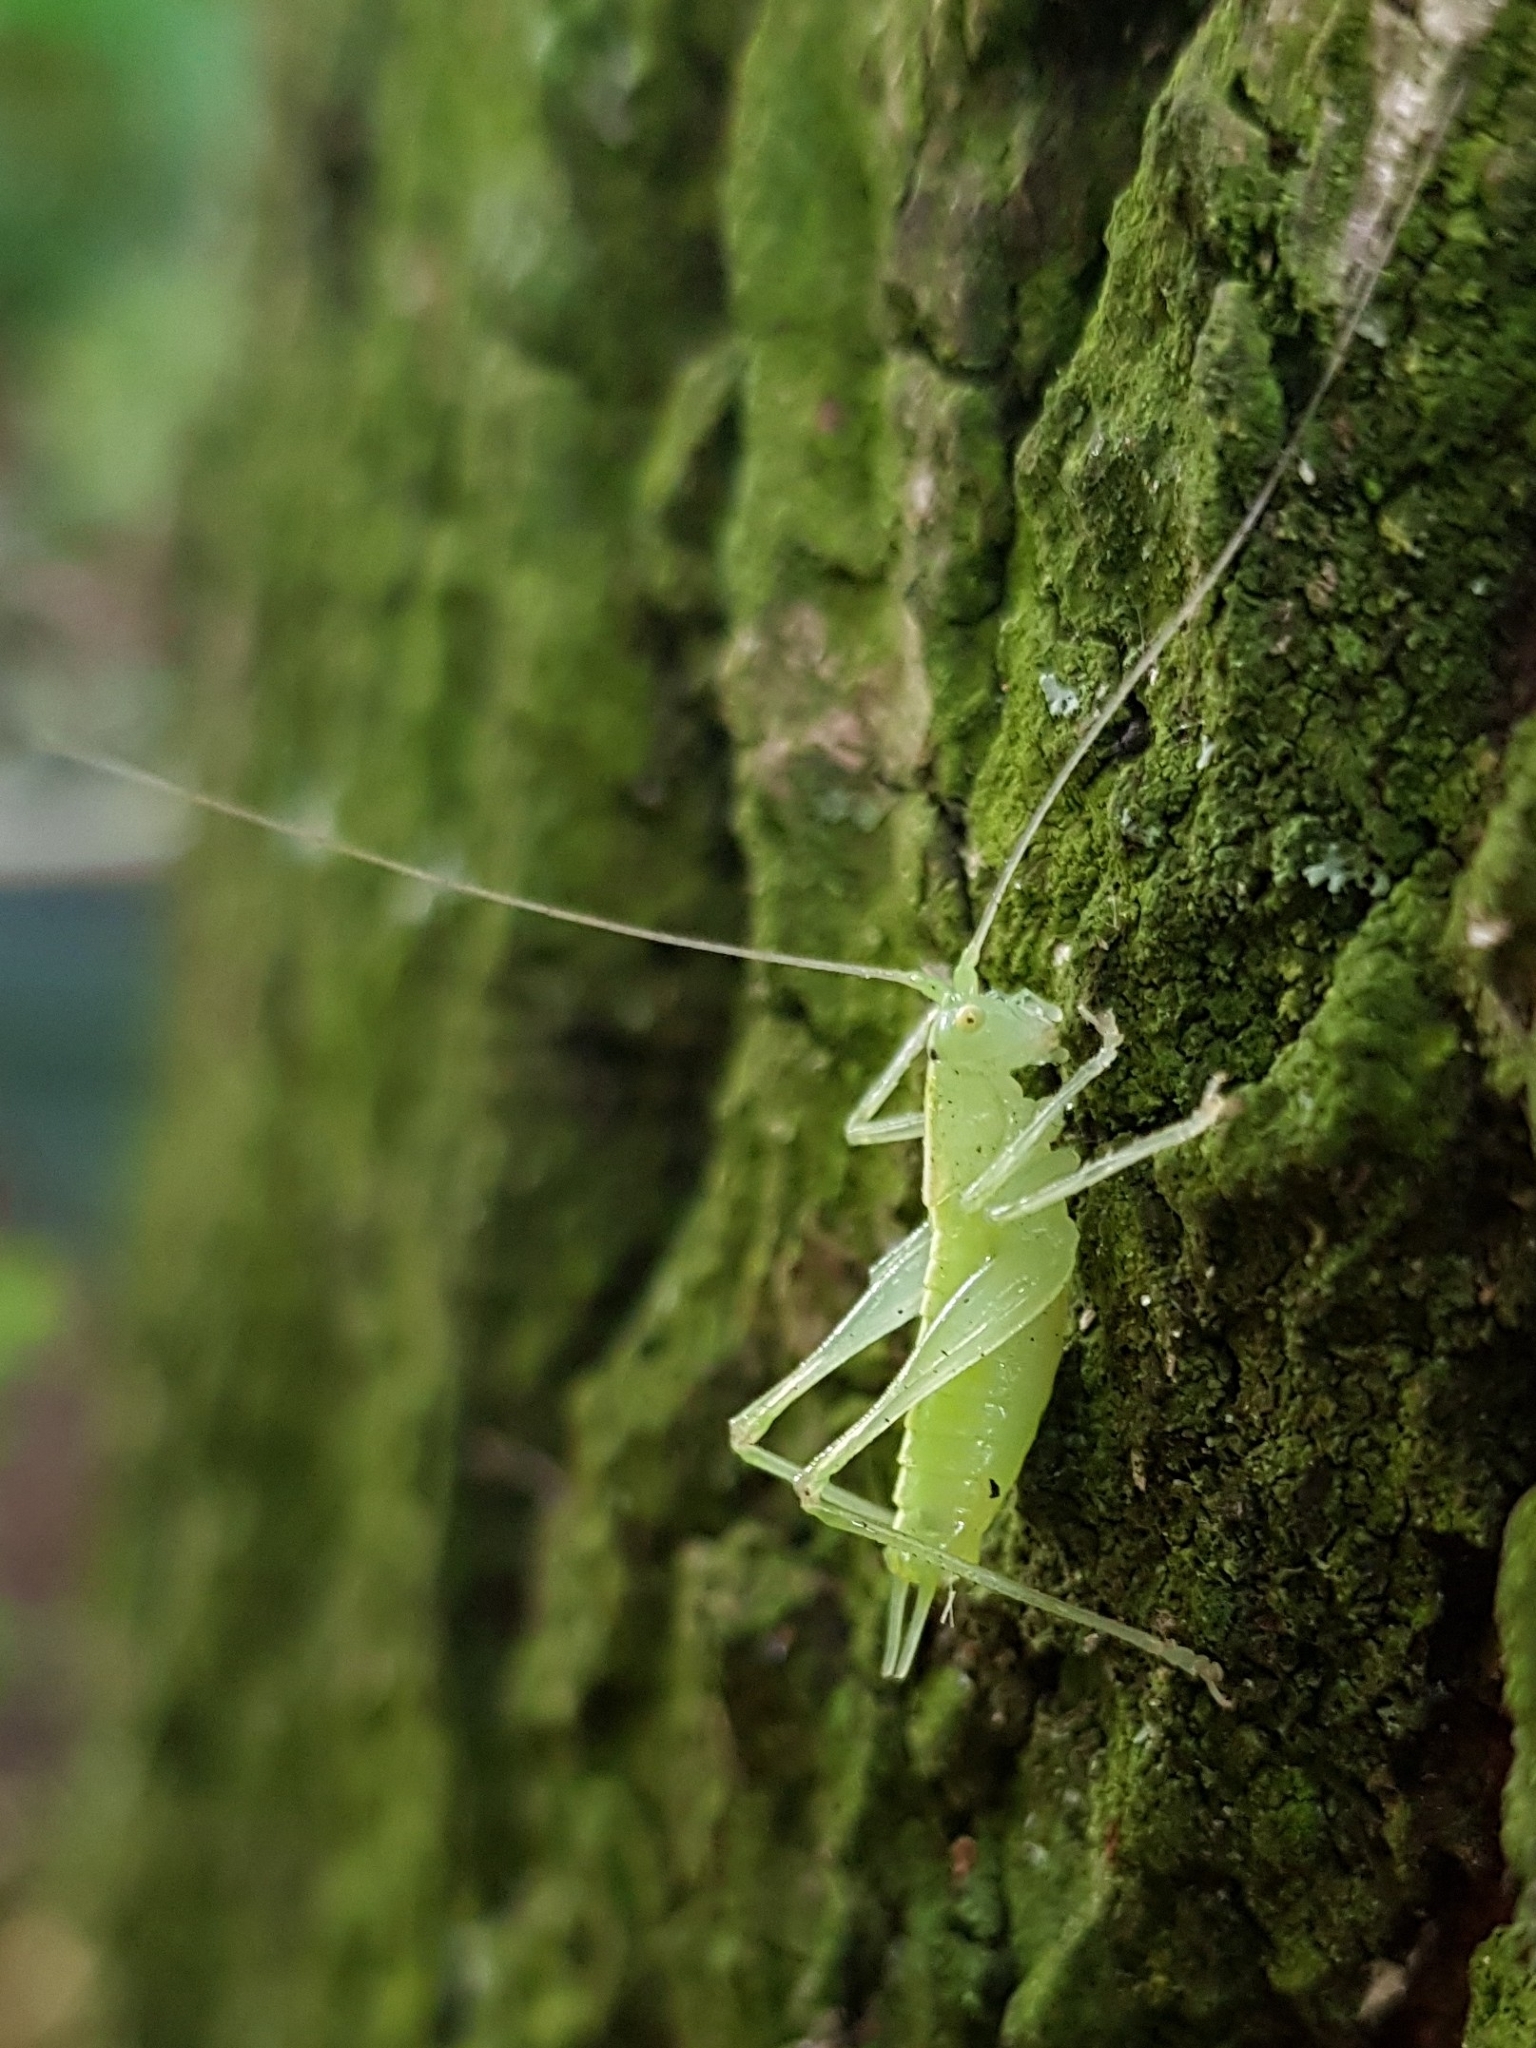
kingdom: Animalia
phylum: Arthropoda
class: Insecta
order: Orthoptera
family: Tettigoniidae
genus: Meconema
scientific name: Meconema meridionale
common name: Southern oak bush-cricket
